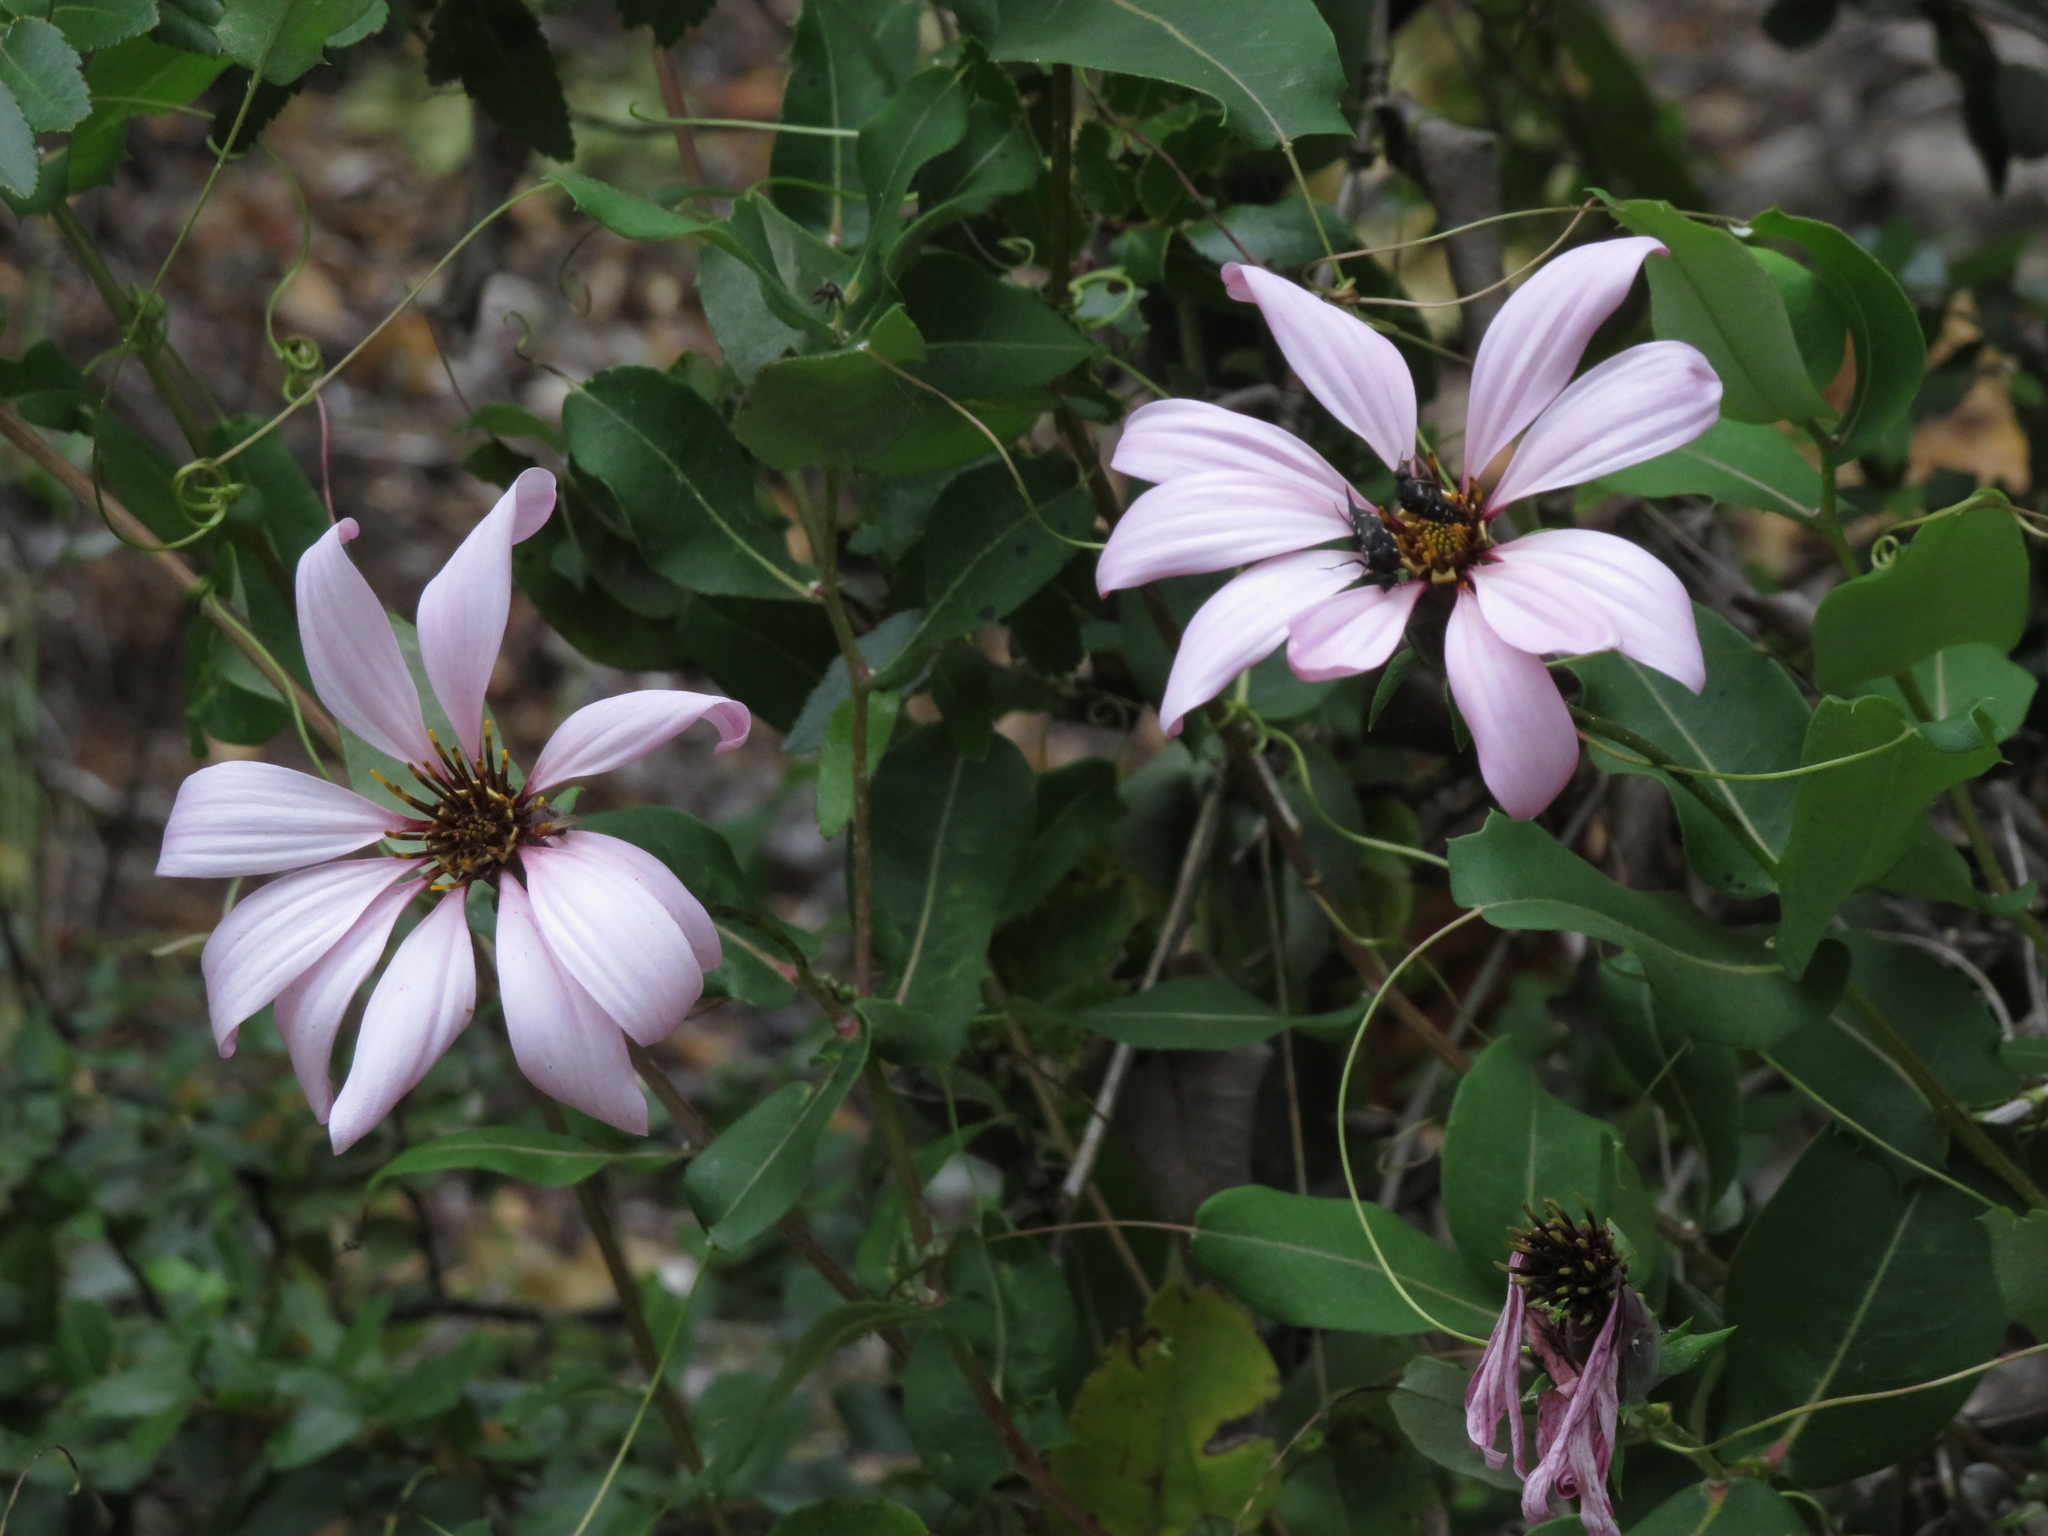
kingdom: Plantae
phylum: Tracheophyta
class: Magnoliopsida
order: Asterales
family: Asteraceae
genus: Mutisia
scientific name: Mutisia spinosa
